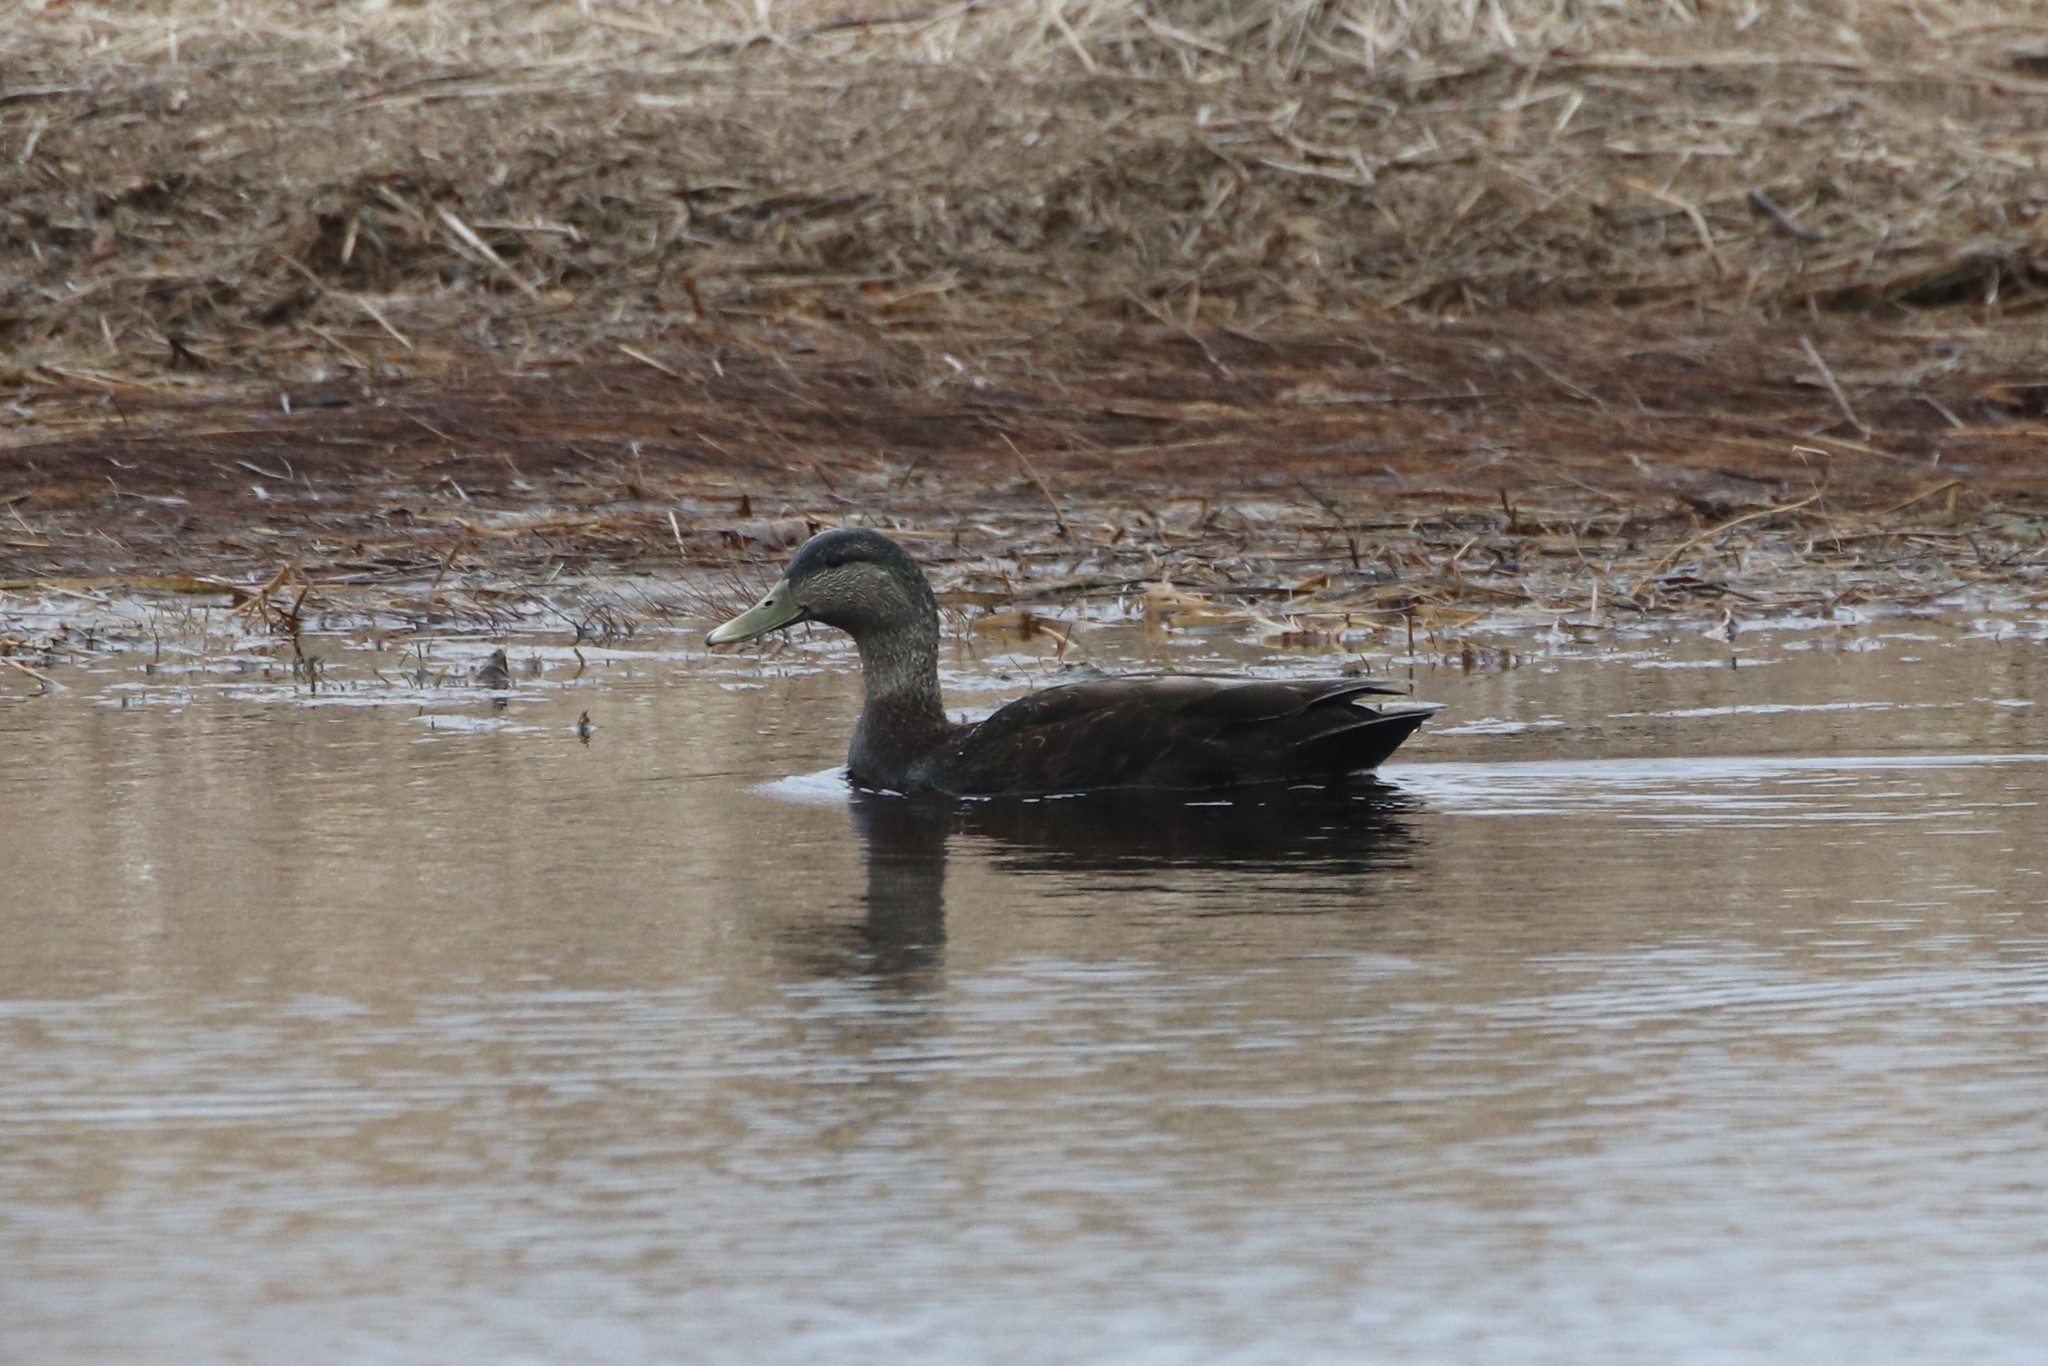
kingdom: Animalia
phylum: Chordata
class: Aves
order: Anseriformes
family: Anatidae
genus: Anas
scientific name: Anas rubripes
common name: American black duck
